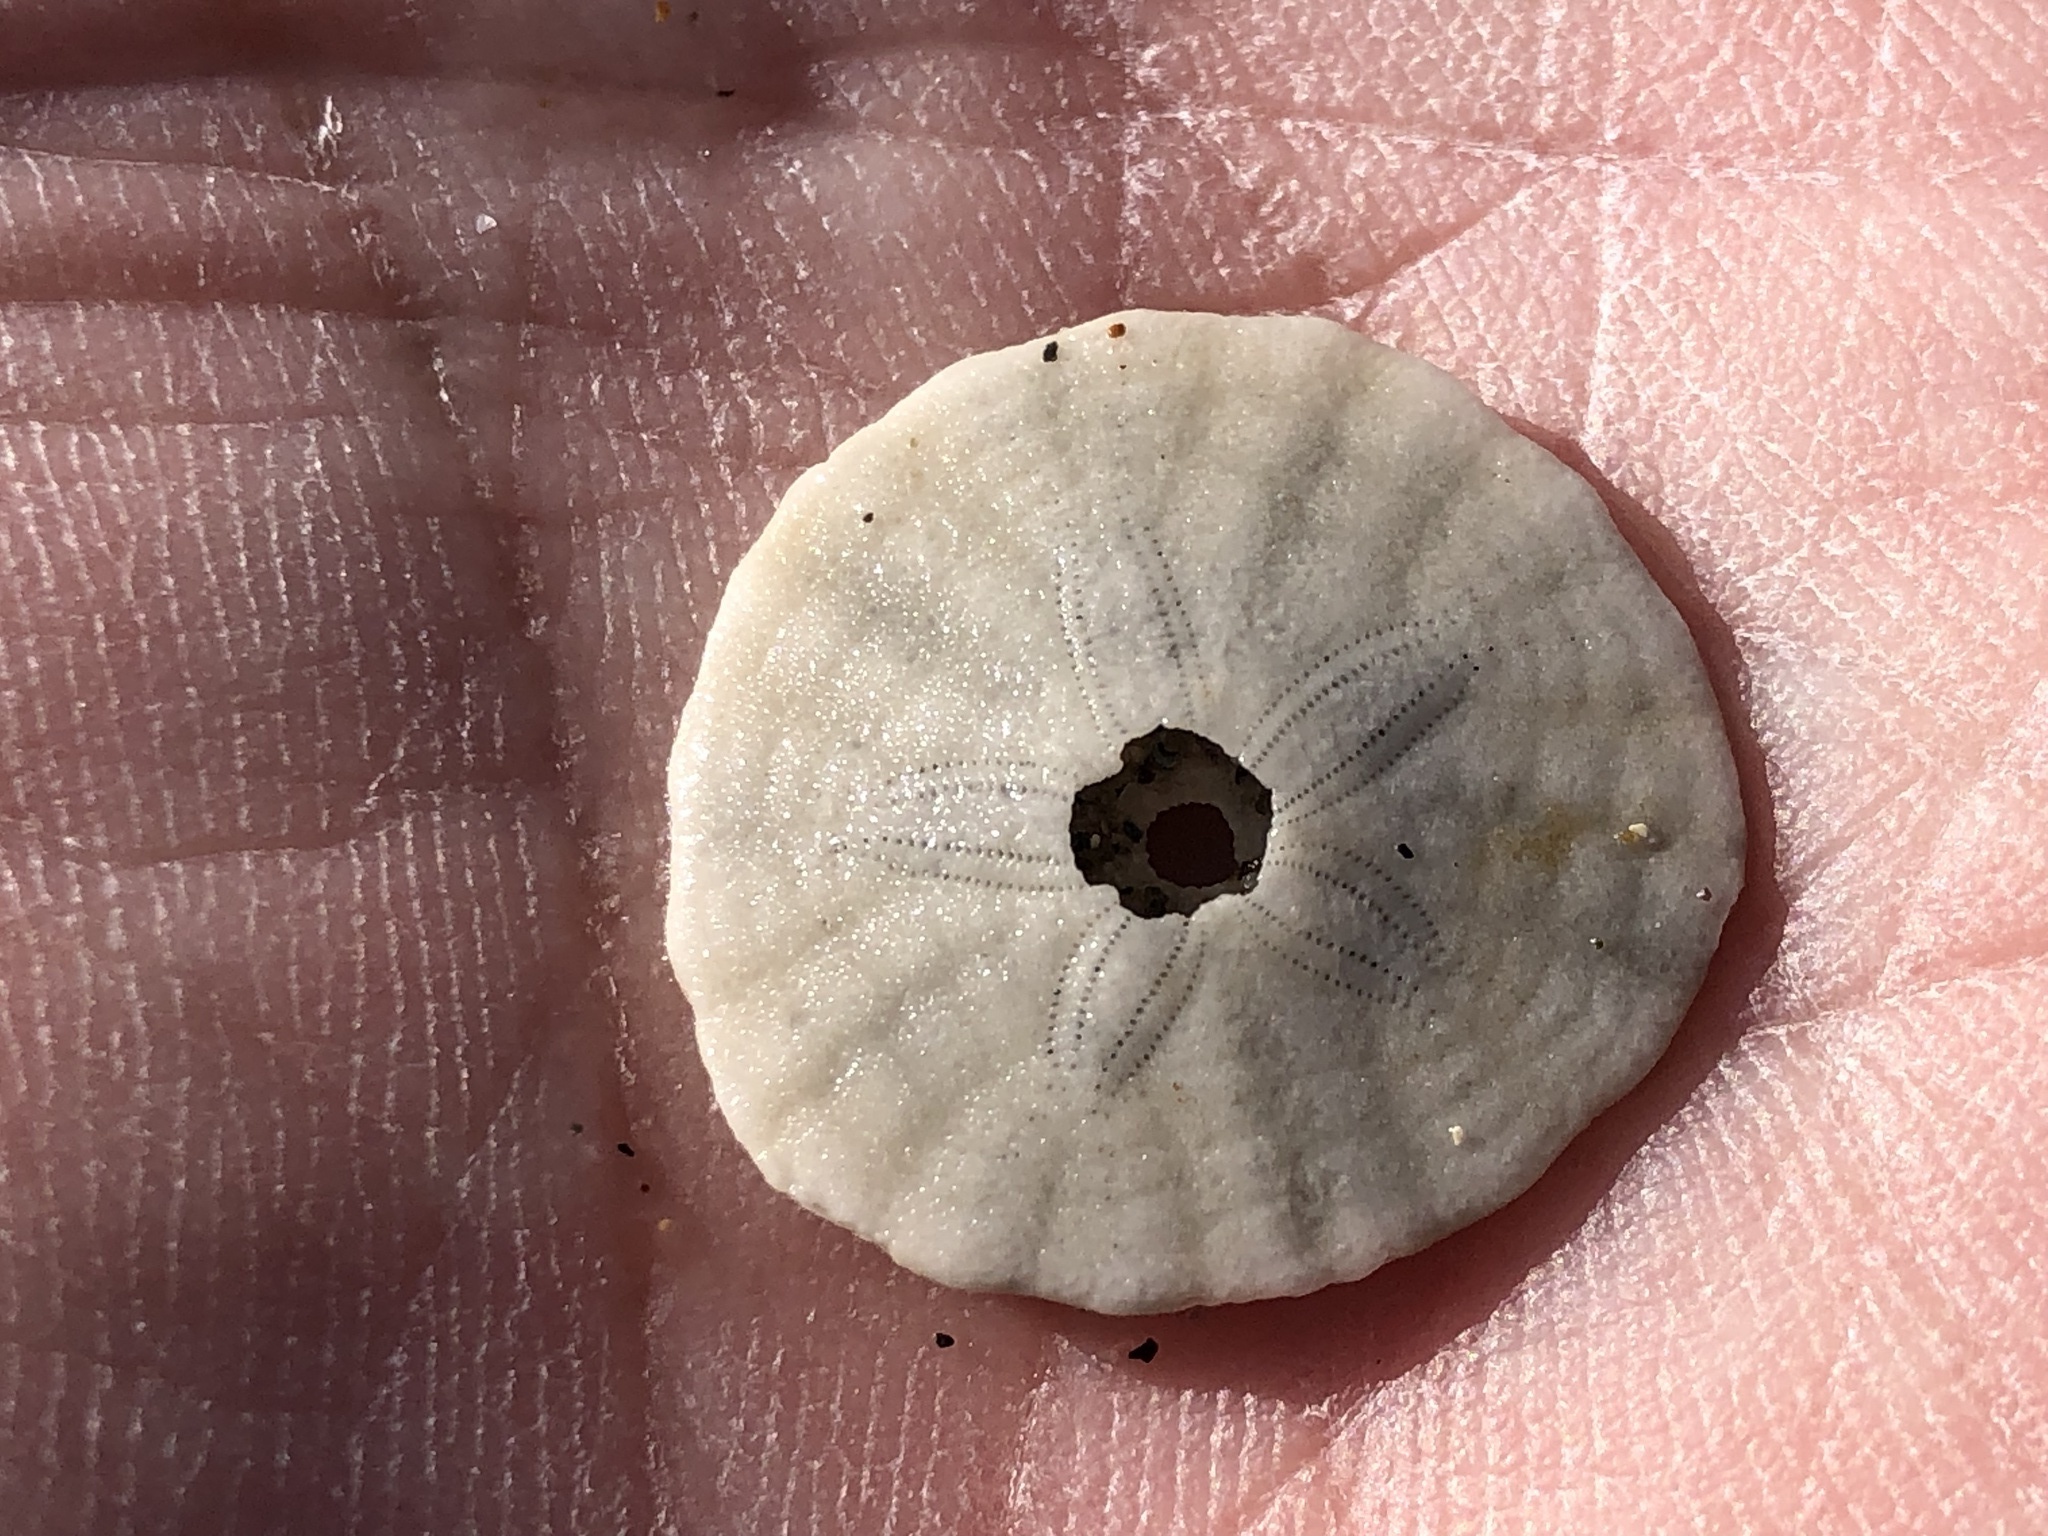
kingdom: Animalia
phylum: Echinodermata
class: Echinoidea
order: Echinolampadacea
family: Dendrasteridae
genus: Dendraster
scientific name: Dendraster excentricus
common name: Eccentric sand dollar sea urchin
